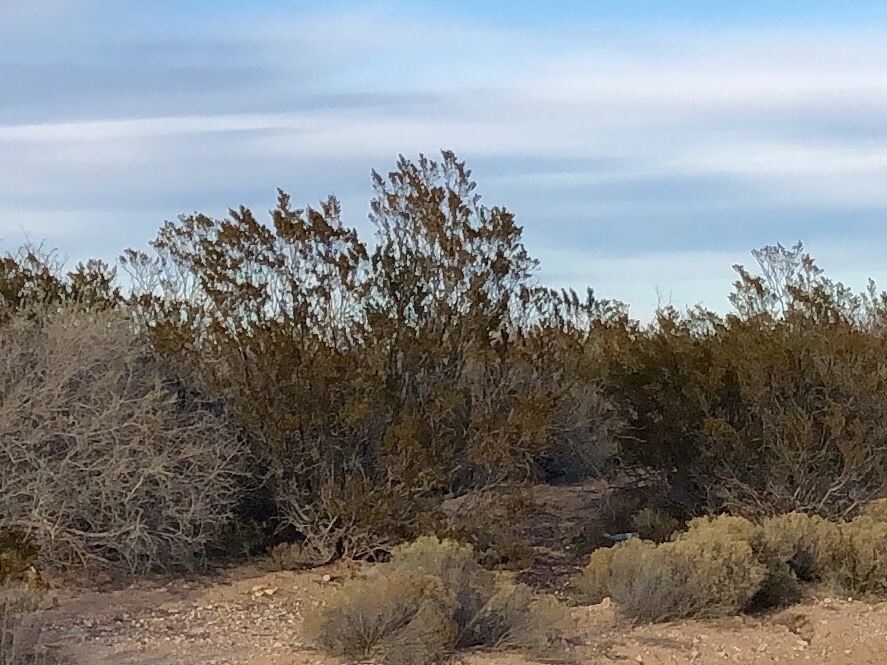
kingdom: Plantae
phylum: Tracheophyta
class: Magnoliopsida
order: Zygophyllales
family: Zygophyllaceae
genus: Larrea
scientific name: Larrea tridentata
